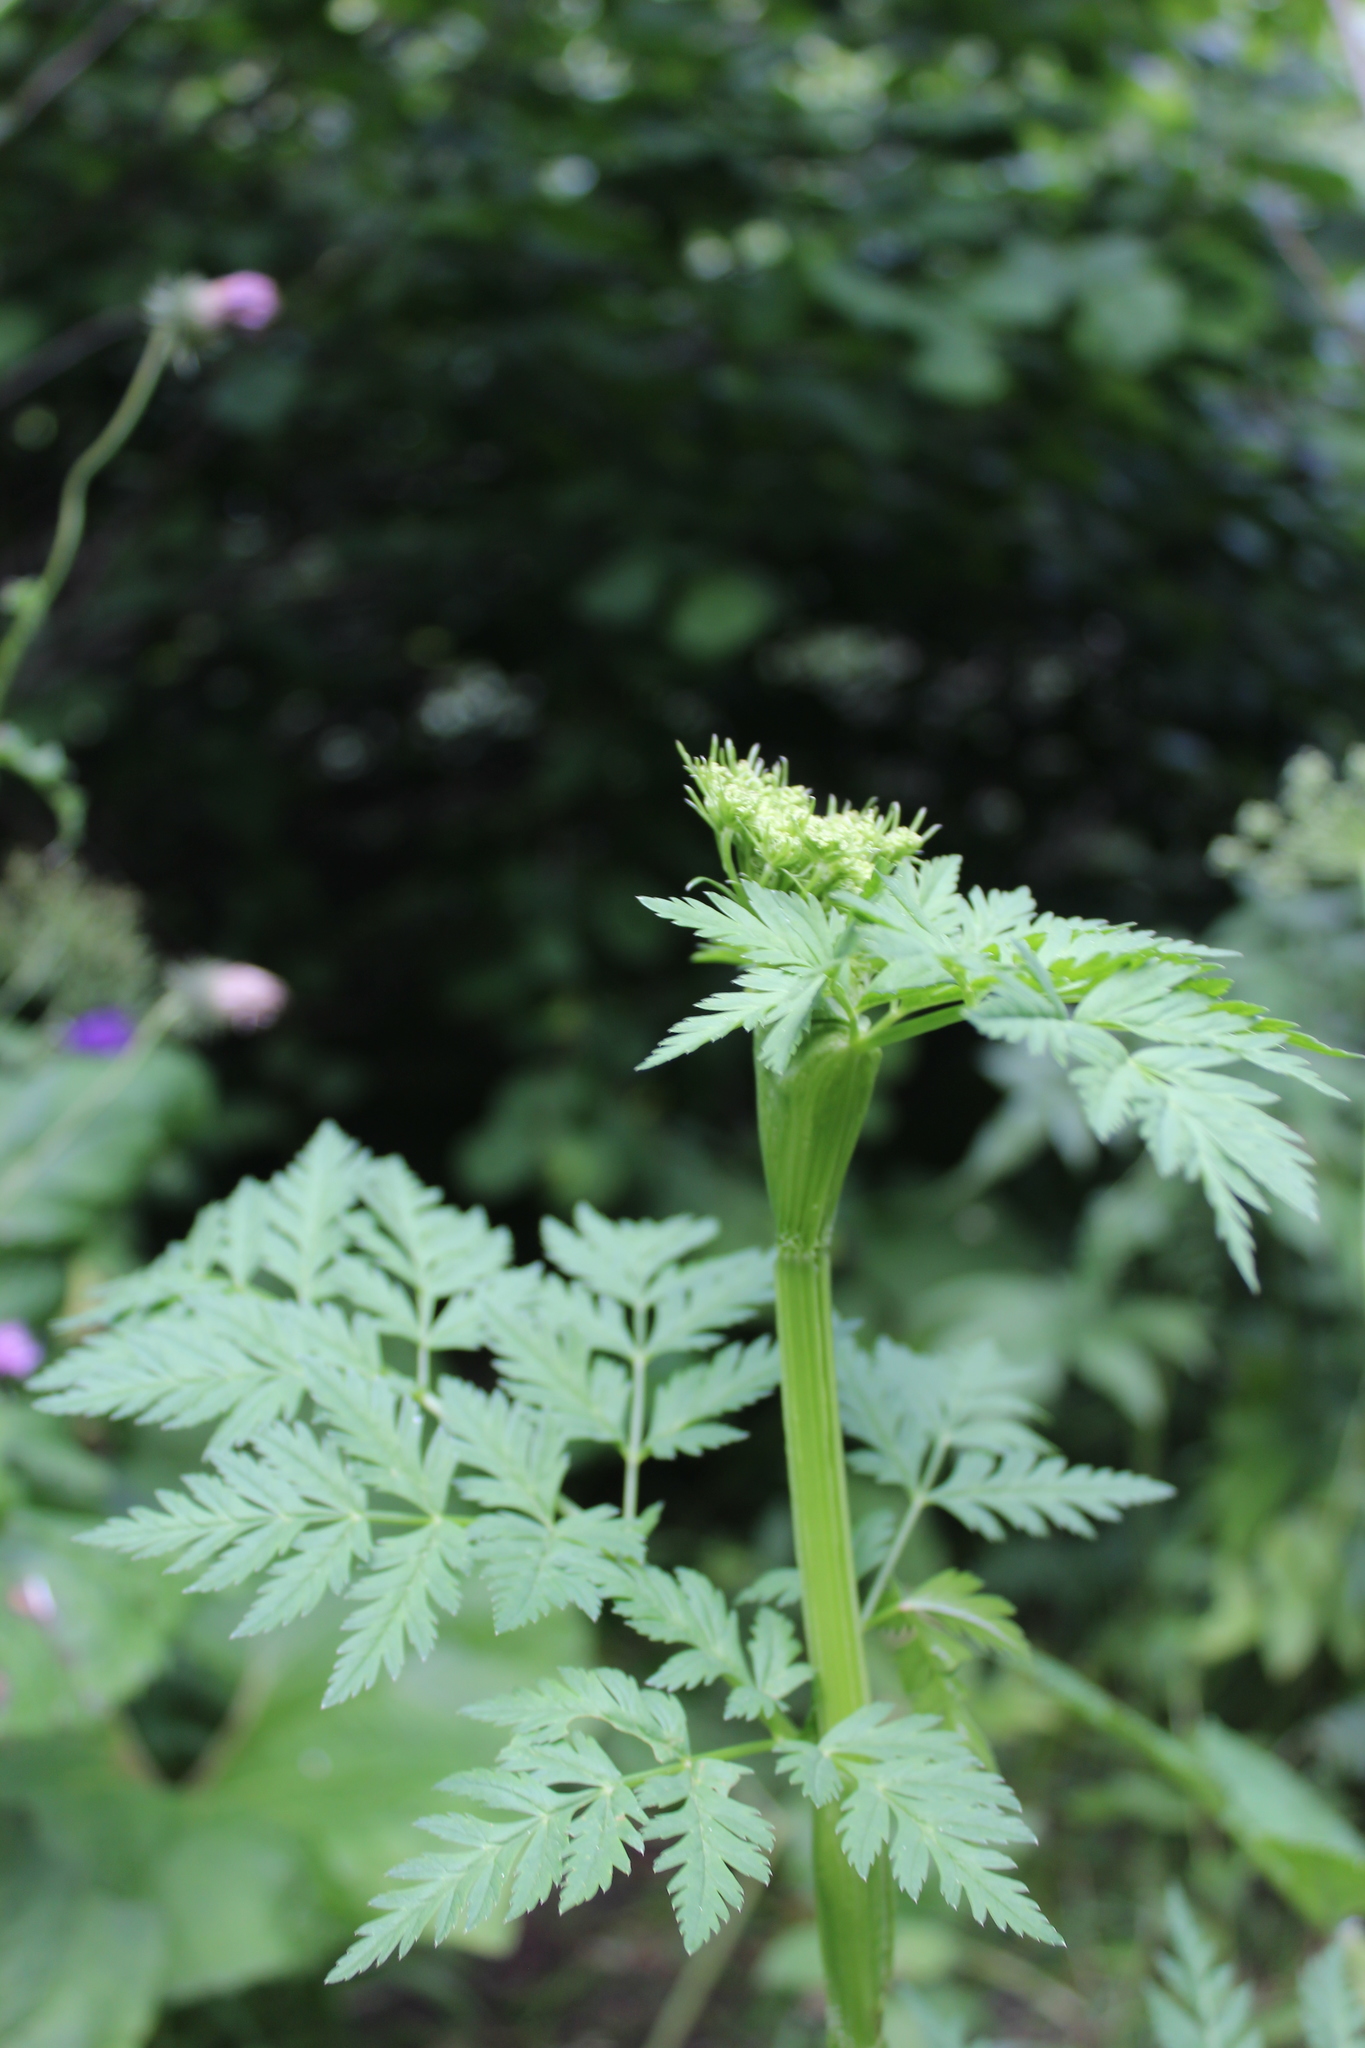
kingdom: Plantae
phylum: Tracheophyta
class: Magnoliopsida
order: Apiales
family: Apiaceae
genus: Selinum
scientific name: Selinum alatum
